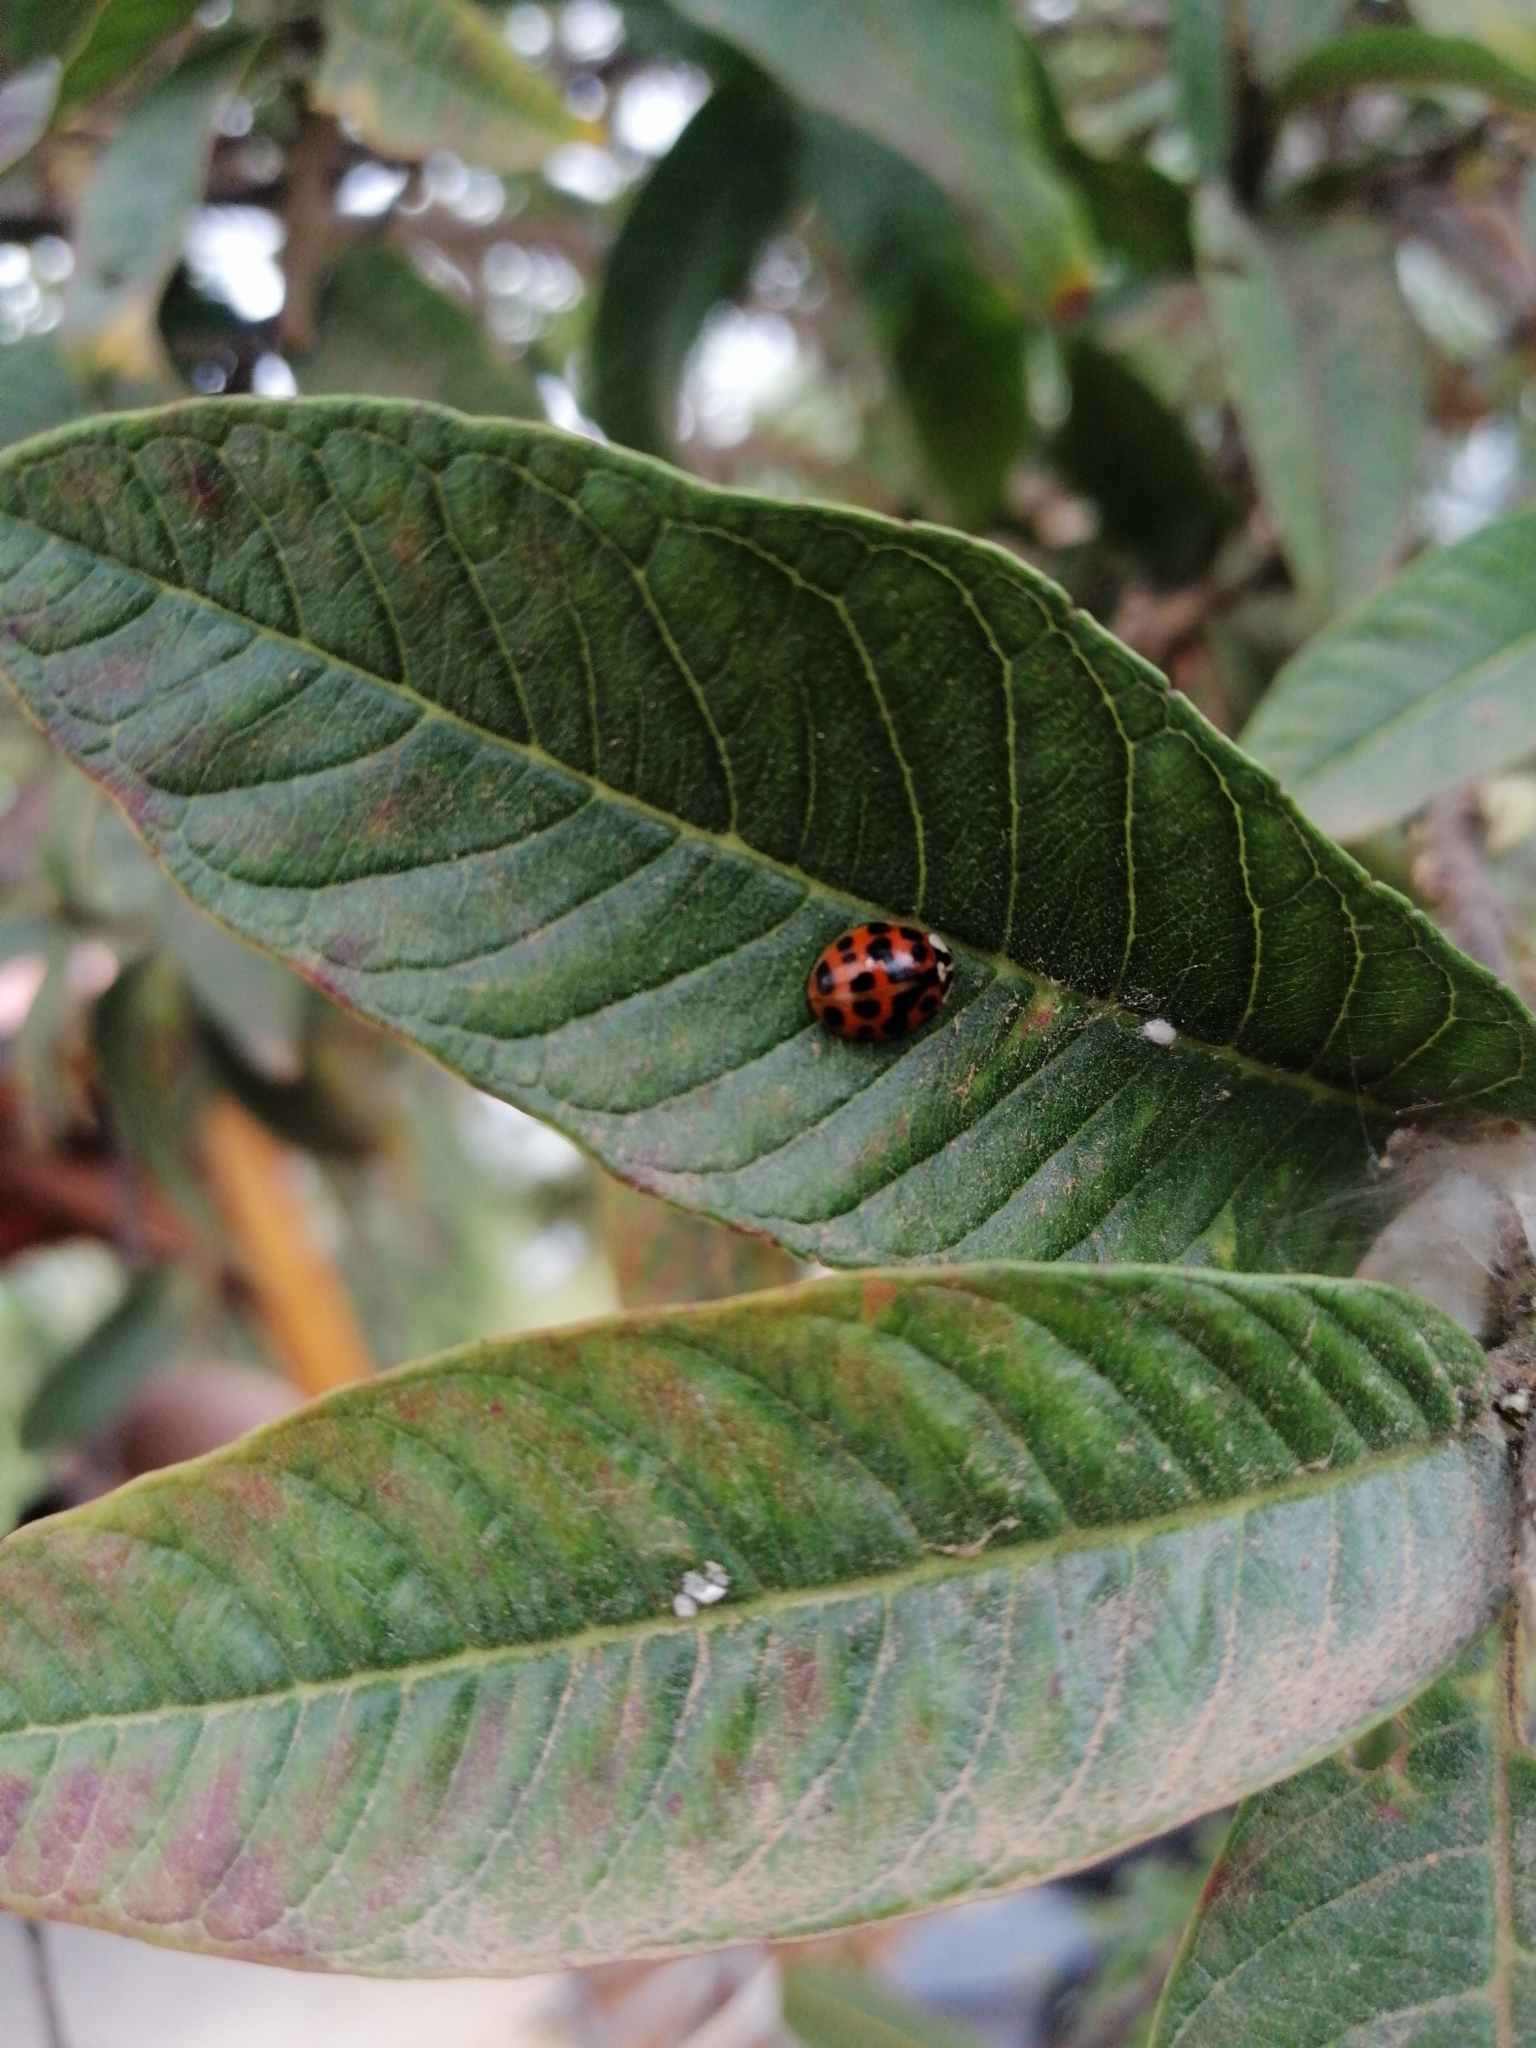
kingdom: Animalia
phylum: Arthropoda
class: Insecta
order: Coleoptera
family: Coccinellidae
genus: Harmonia
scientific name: Harmonia axyridis
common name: Harlequin ladybird
